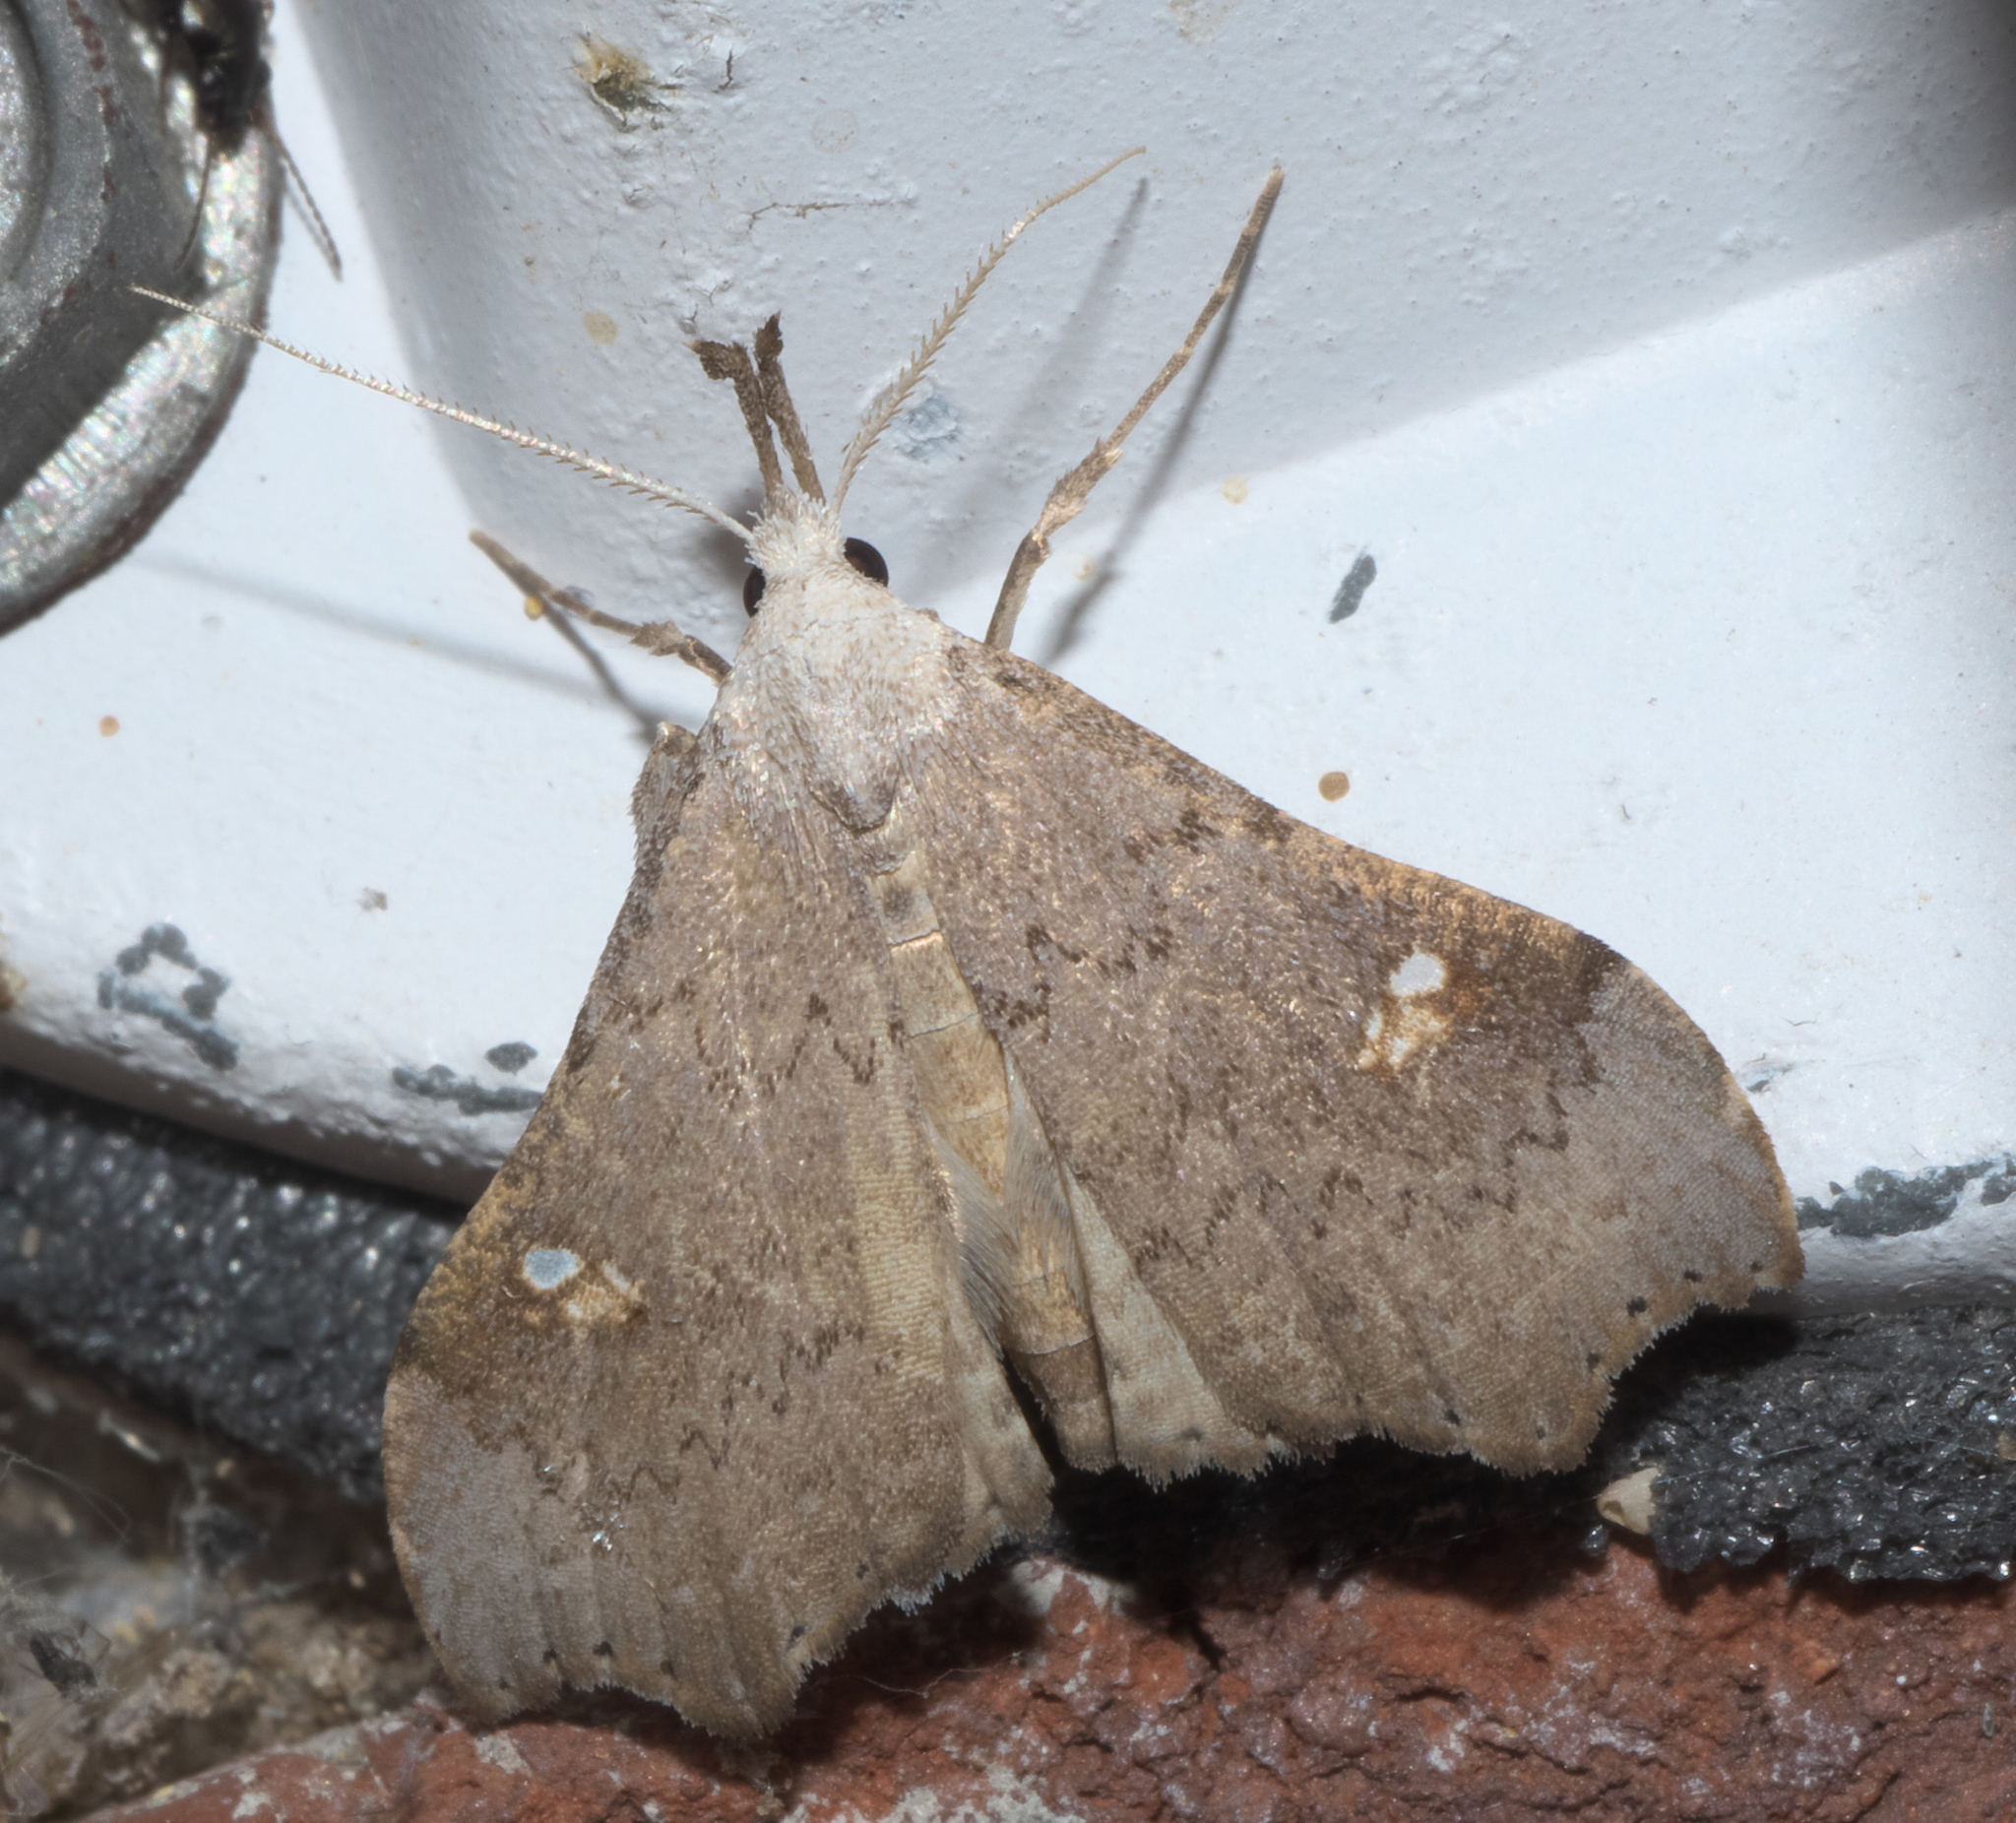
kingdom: Animalia
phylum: Arthropoda
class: Insecta
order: Lepidoptera
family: Erebidae
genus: Redectis
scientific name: Redectis vitrea
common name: White-spotted redectis
